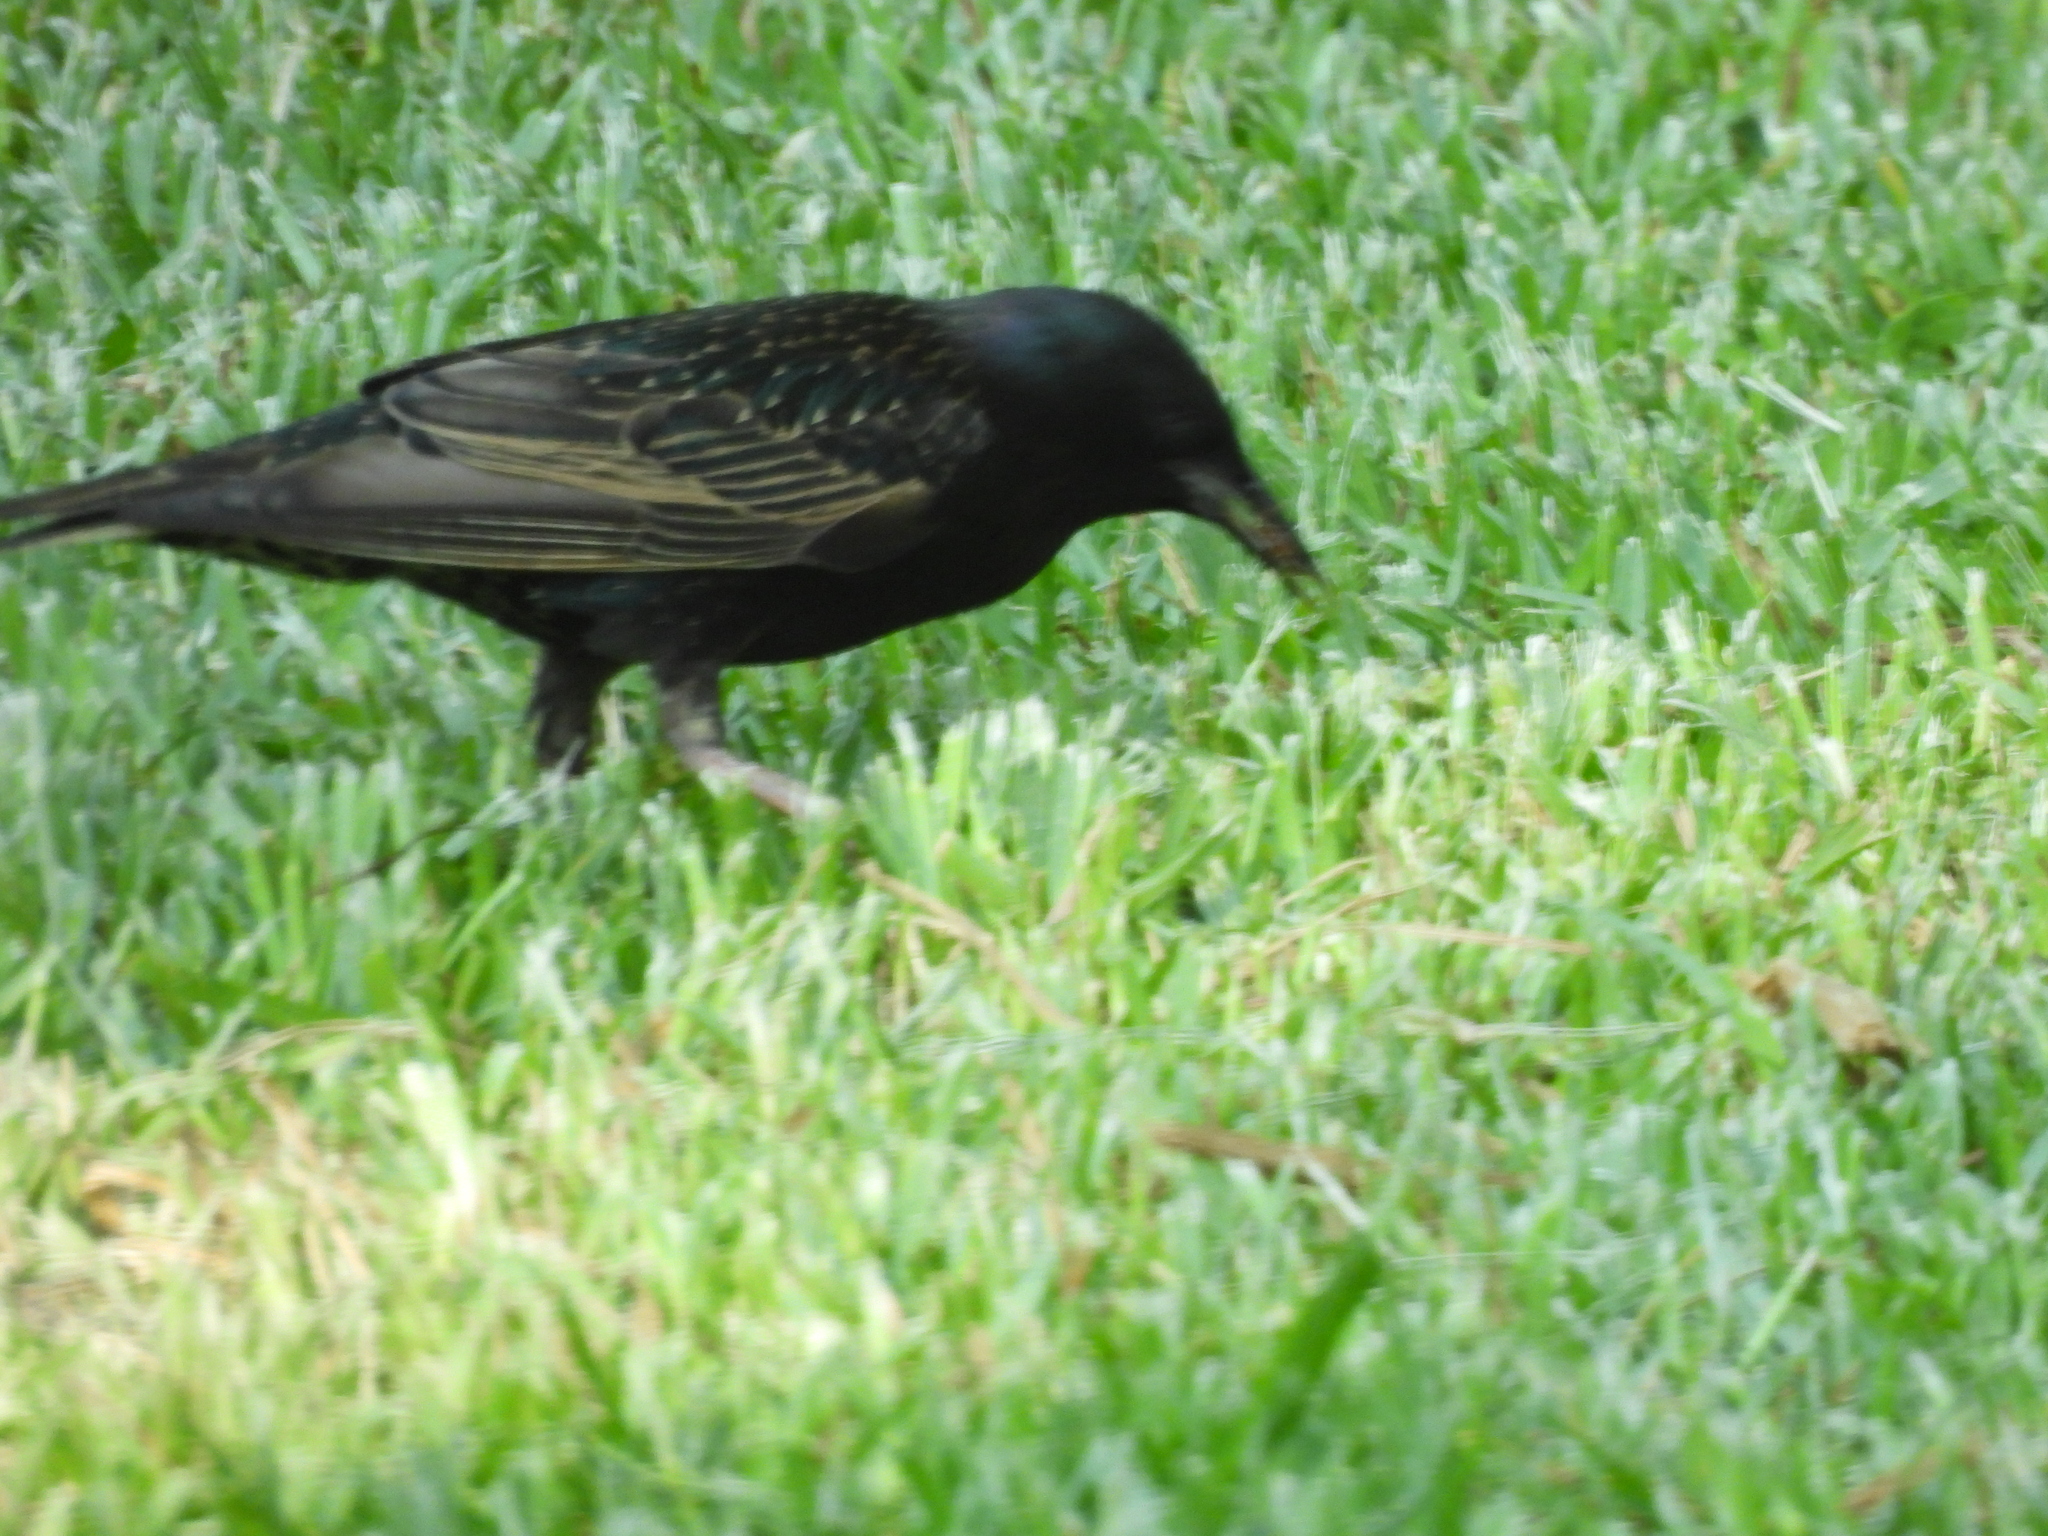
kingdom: Animalia
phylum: Chordata
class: Aves
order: Passeriformes
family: Sturnidae
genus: Sturnus
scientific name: Sturnus vulgaris
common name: Common starling
